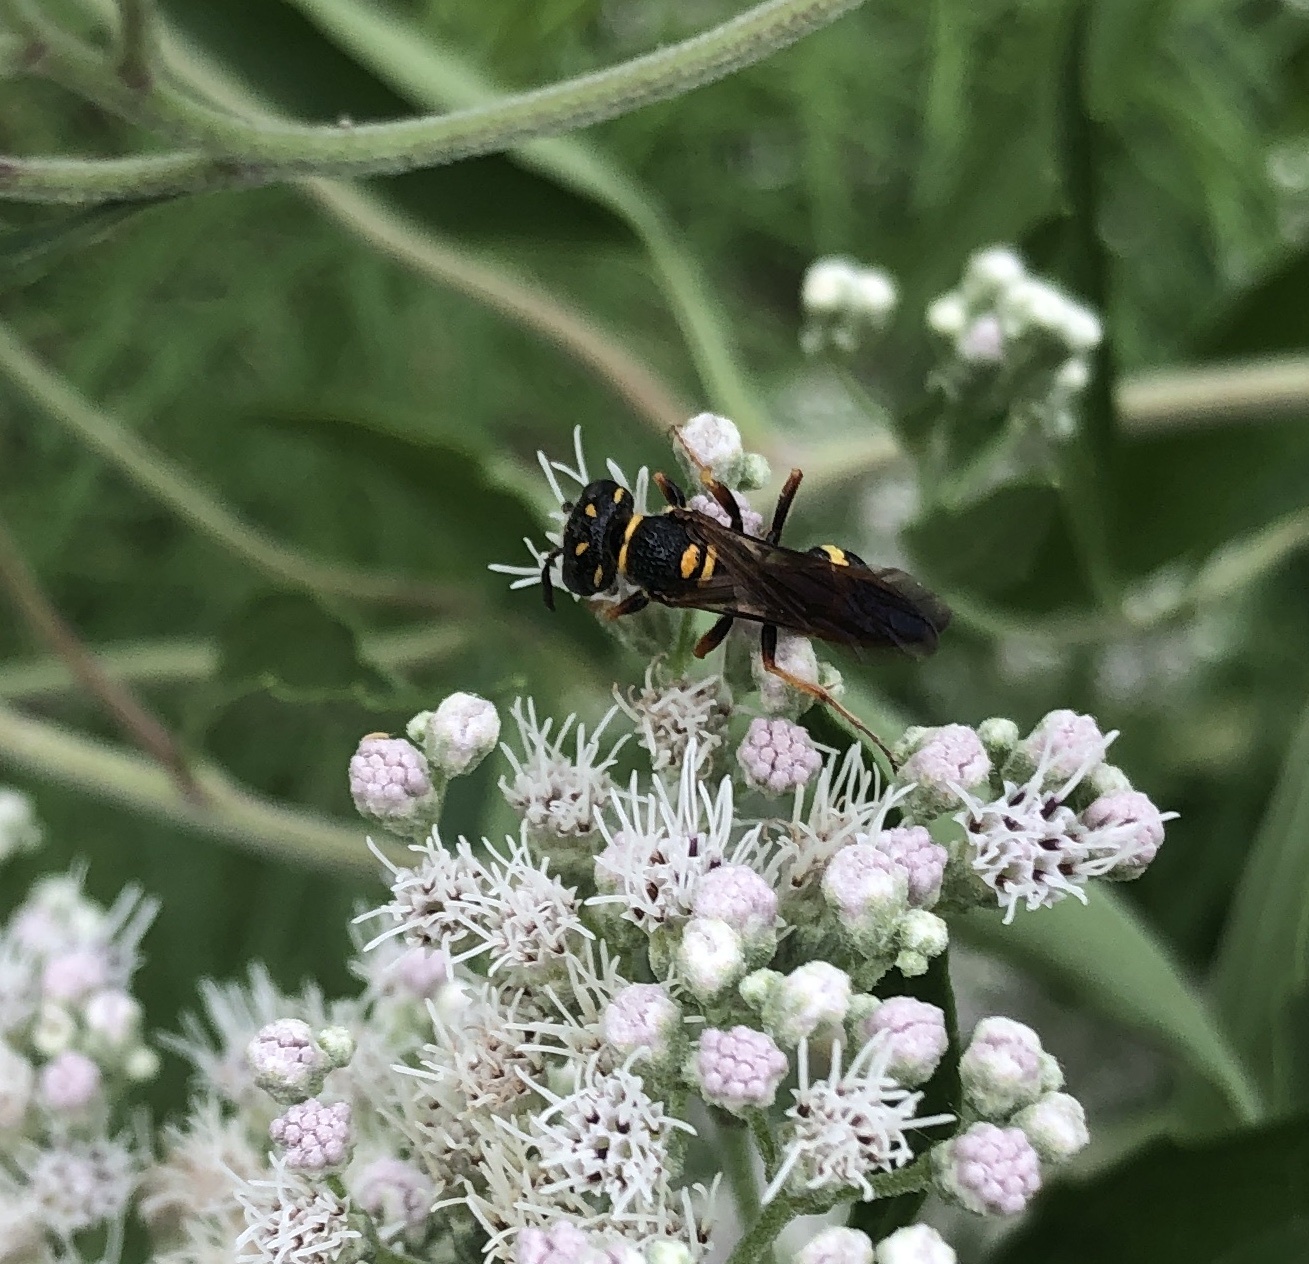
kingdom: Animalia
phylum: Arthropoda
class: Insecta
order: Hymenoptera
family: Crabronidae
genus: Philanthus
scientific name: Philanthus gibbosus
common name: Humped beewolf
